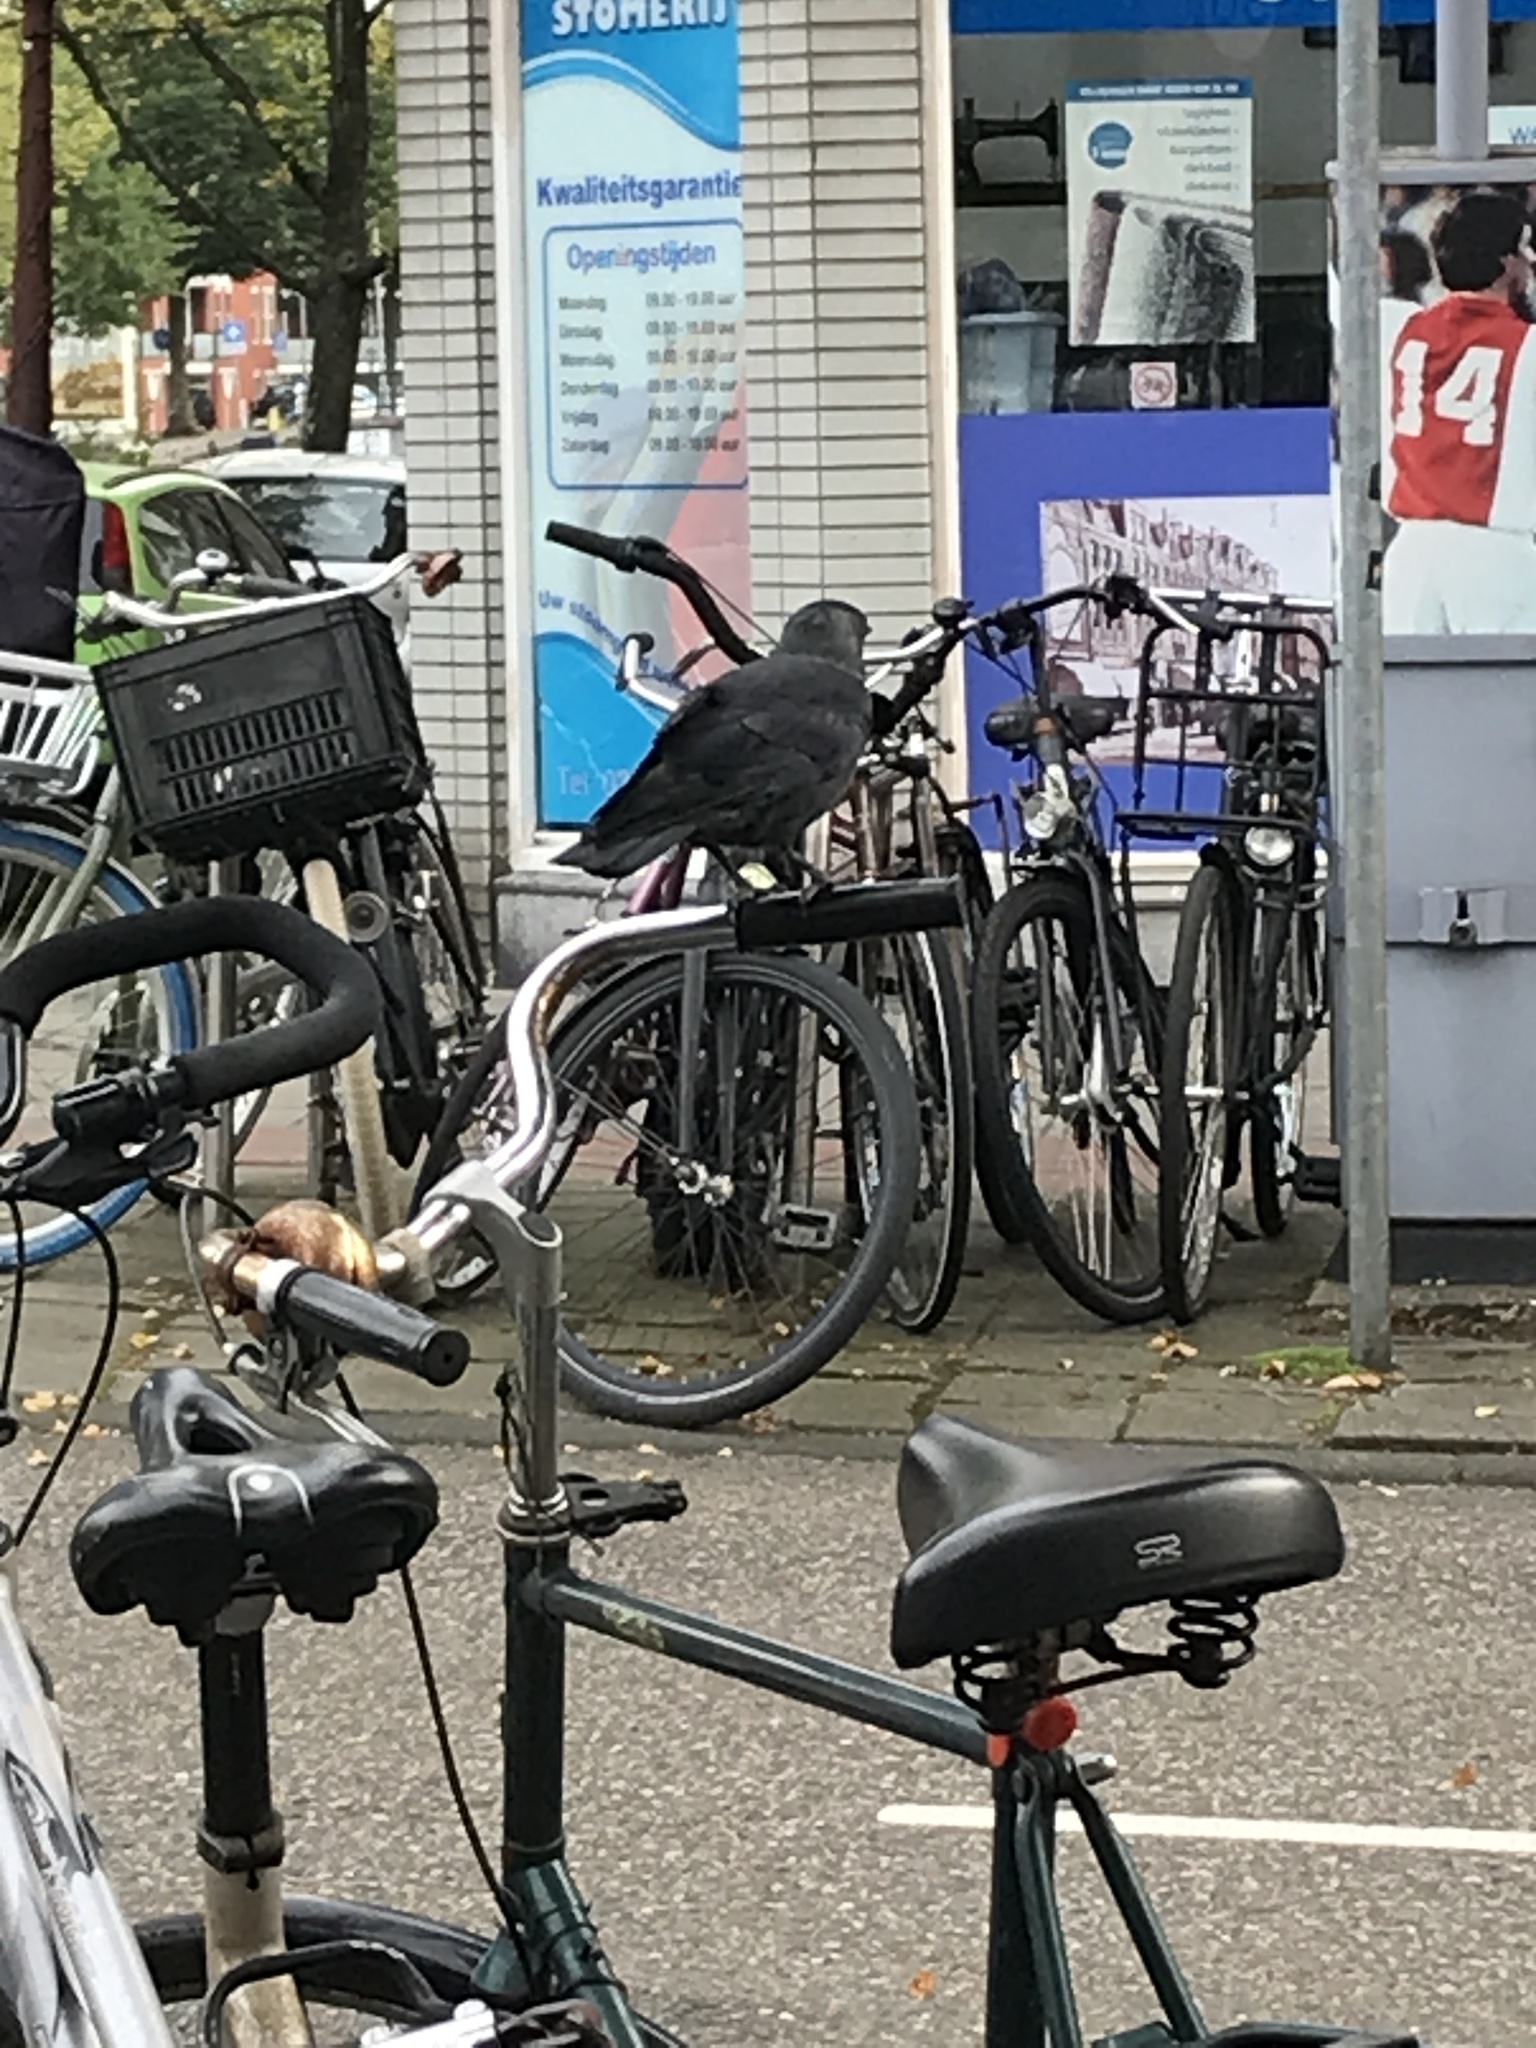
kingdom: Animalia
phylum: Chordata
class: Aves
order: Passeriformes
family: Corvidae
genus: Coloeus
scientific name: Coloeus monedula
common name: Western jackdaw
